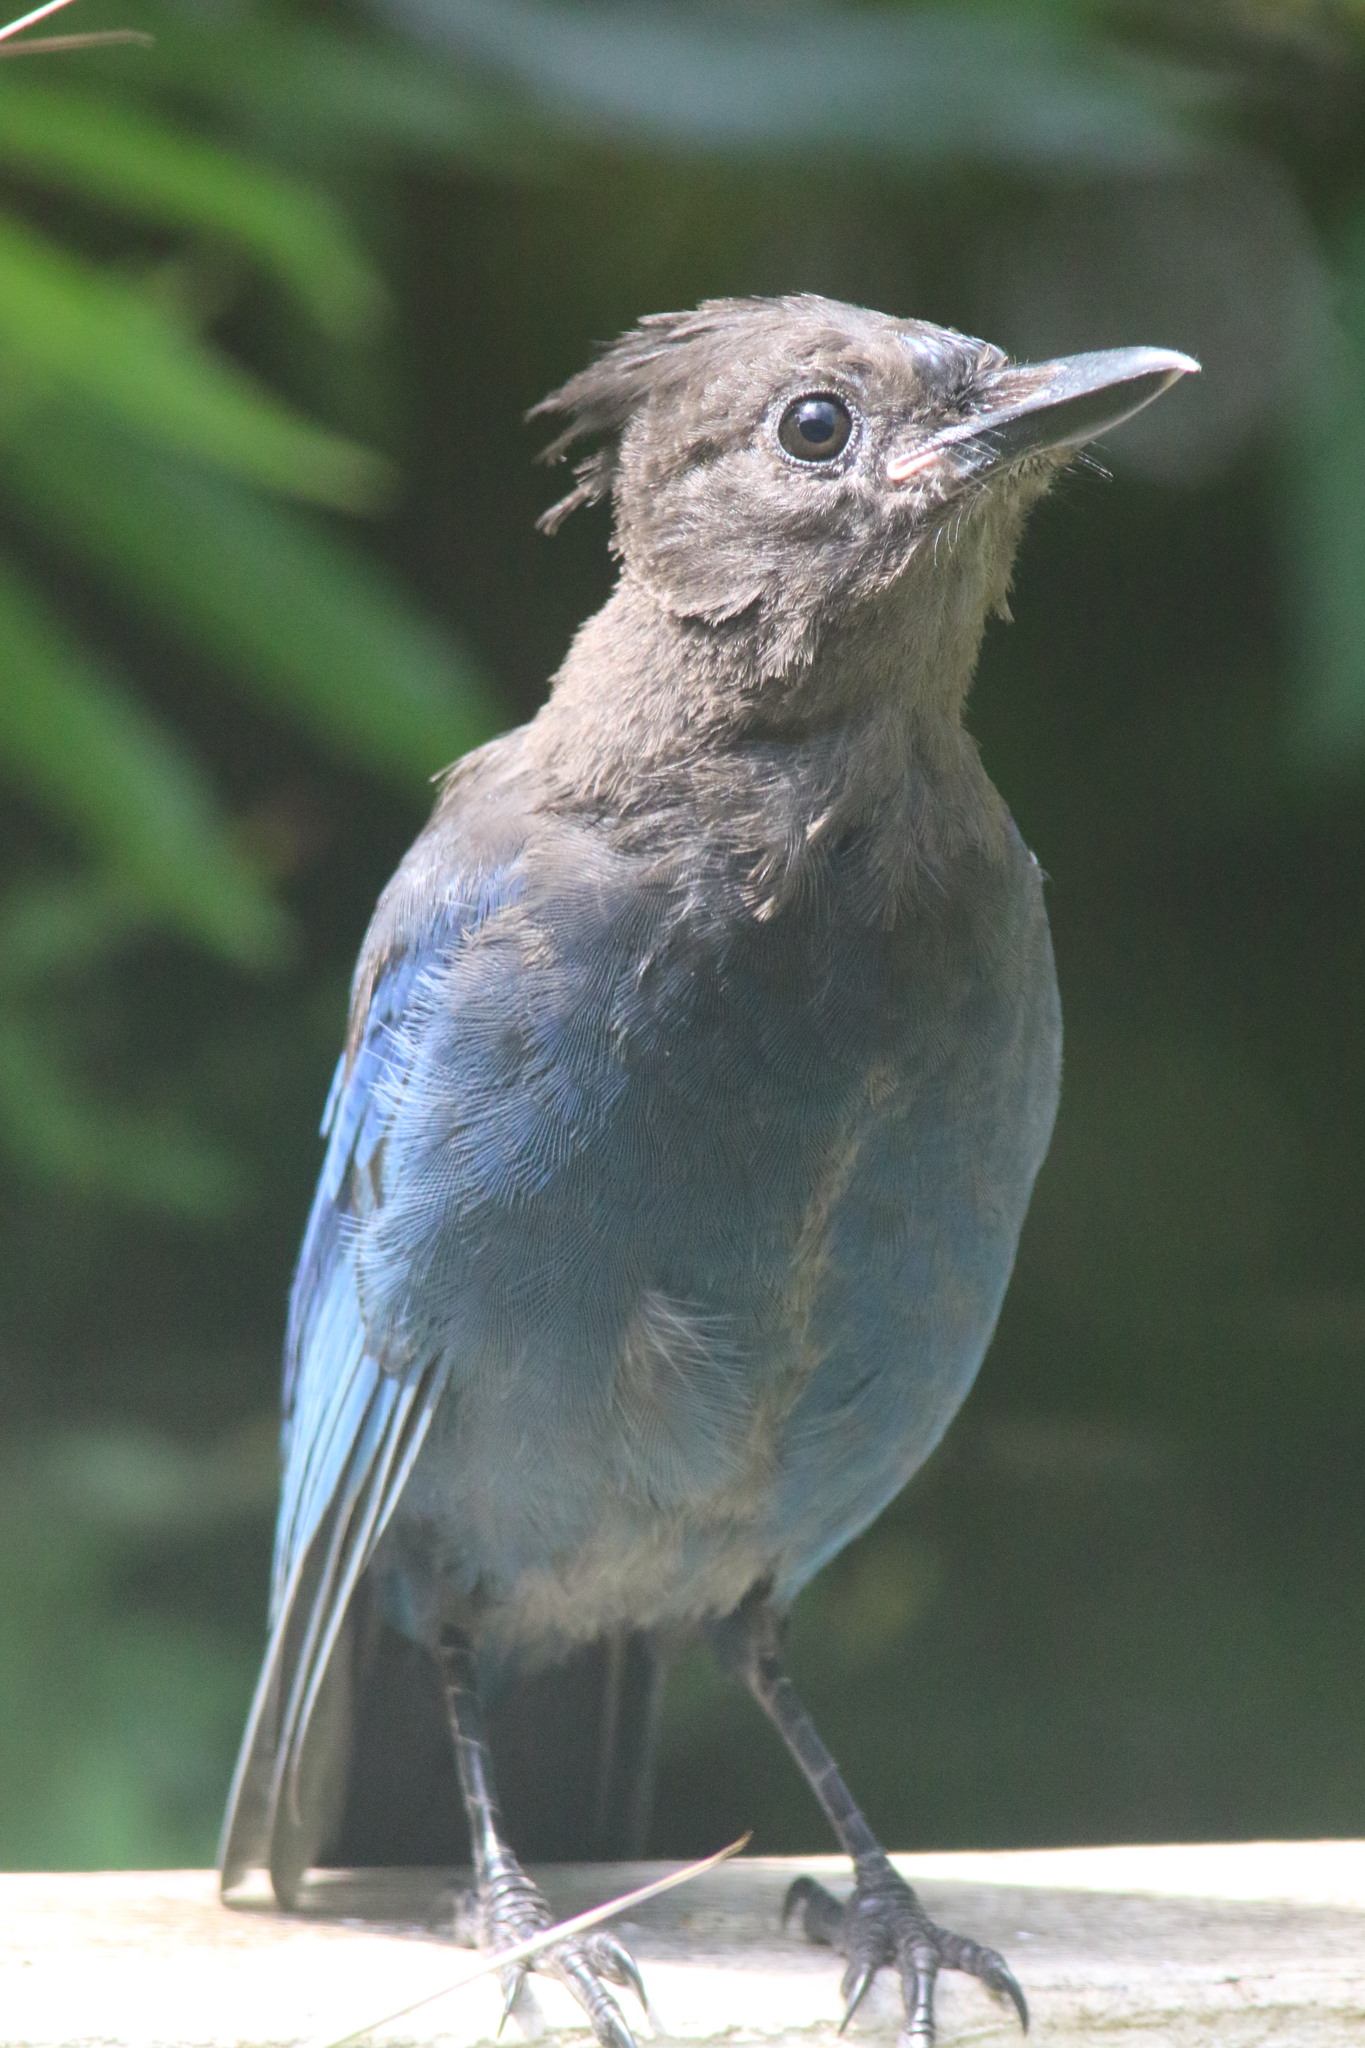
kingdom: Animalia
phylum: Chordata
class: Aves
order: Passeriformes
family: Corvidae
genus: Cyanocitta
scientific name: Cyanocitta stelleri
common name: Steller's jay
